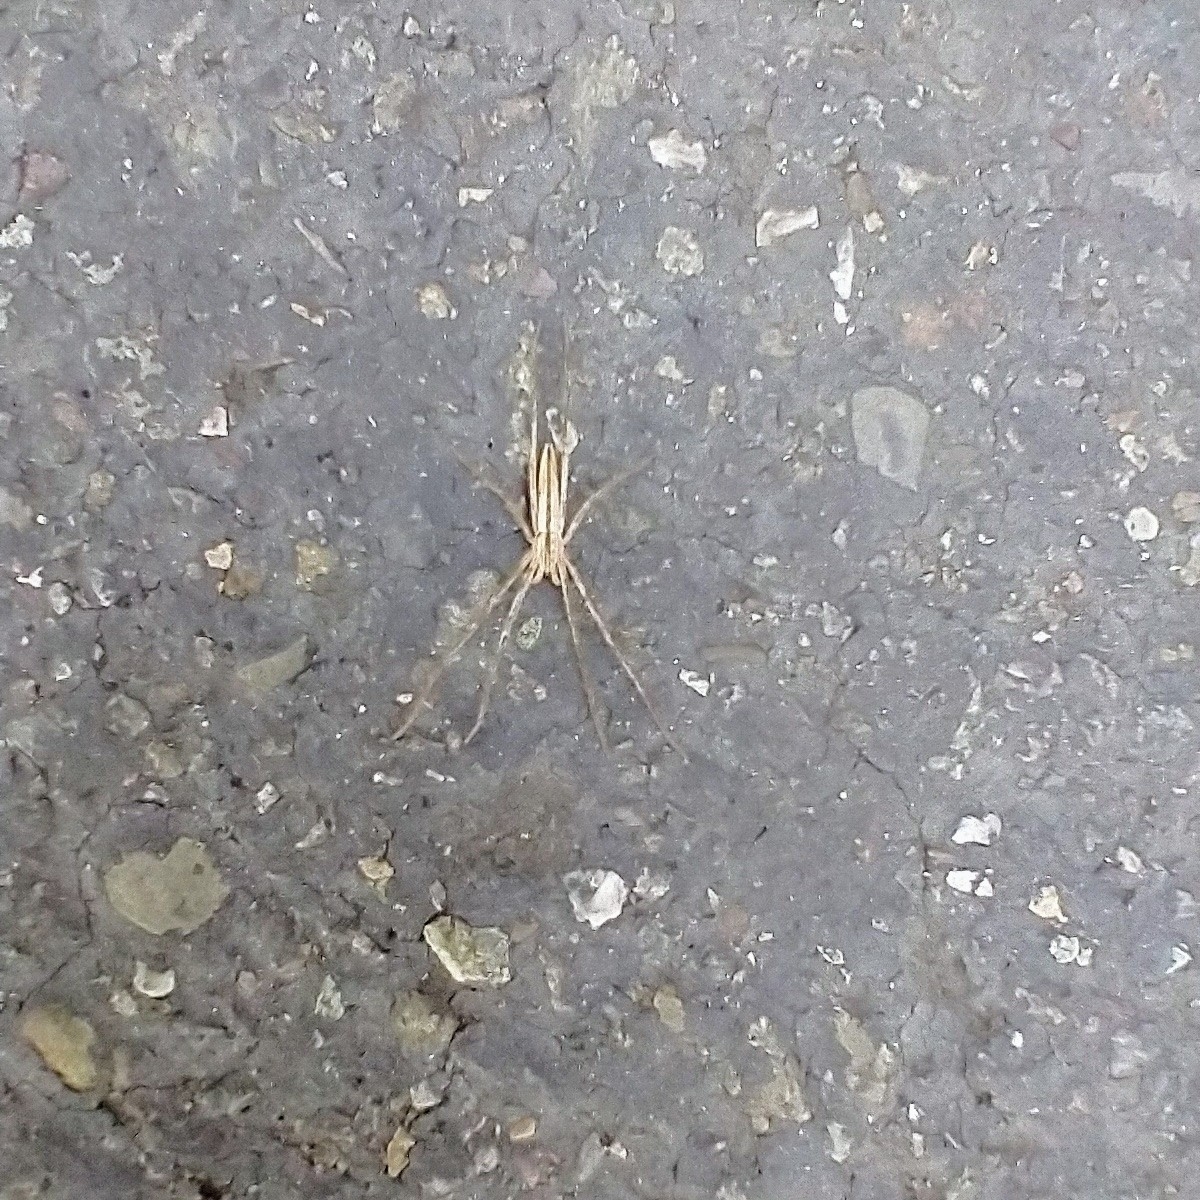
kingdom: Animalia
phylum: Arthropoda
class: Arachnida
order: Araneae
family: Philodromidae
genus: Tibellus
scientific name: Tibellus
